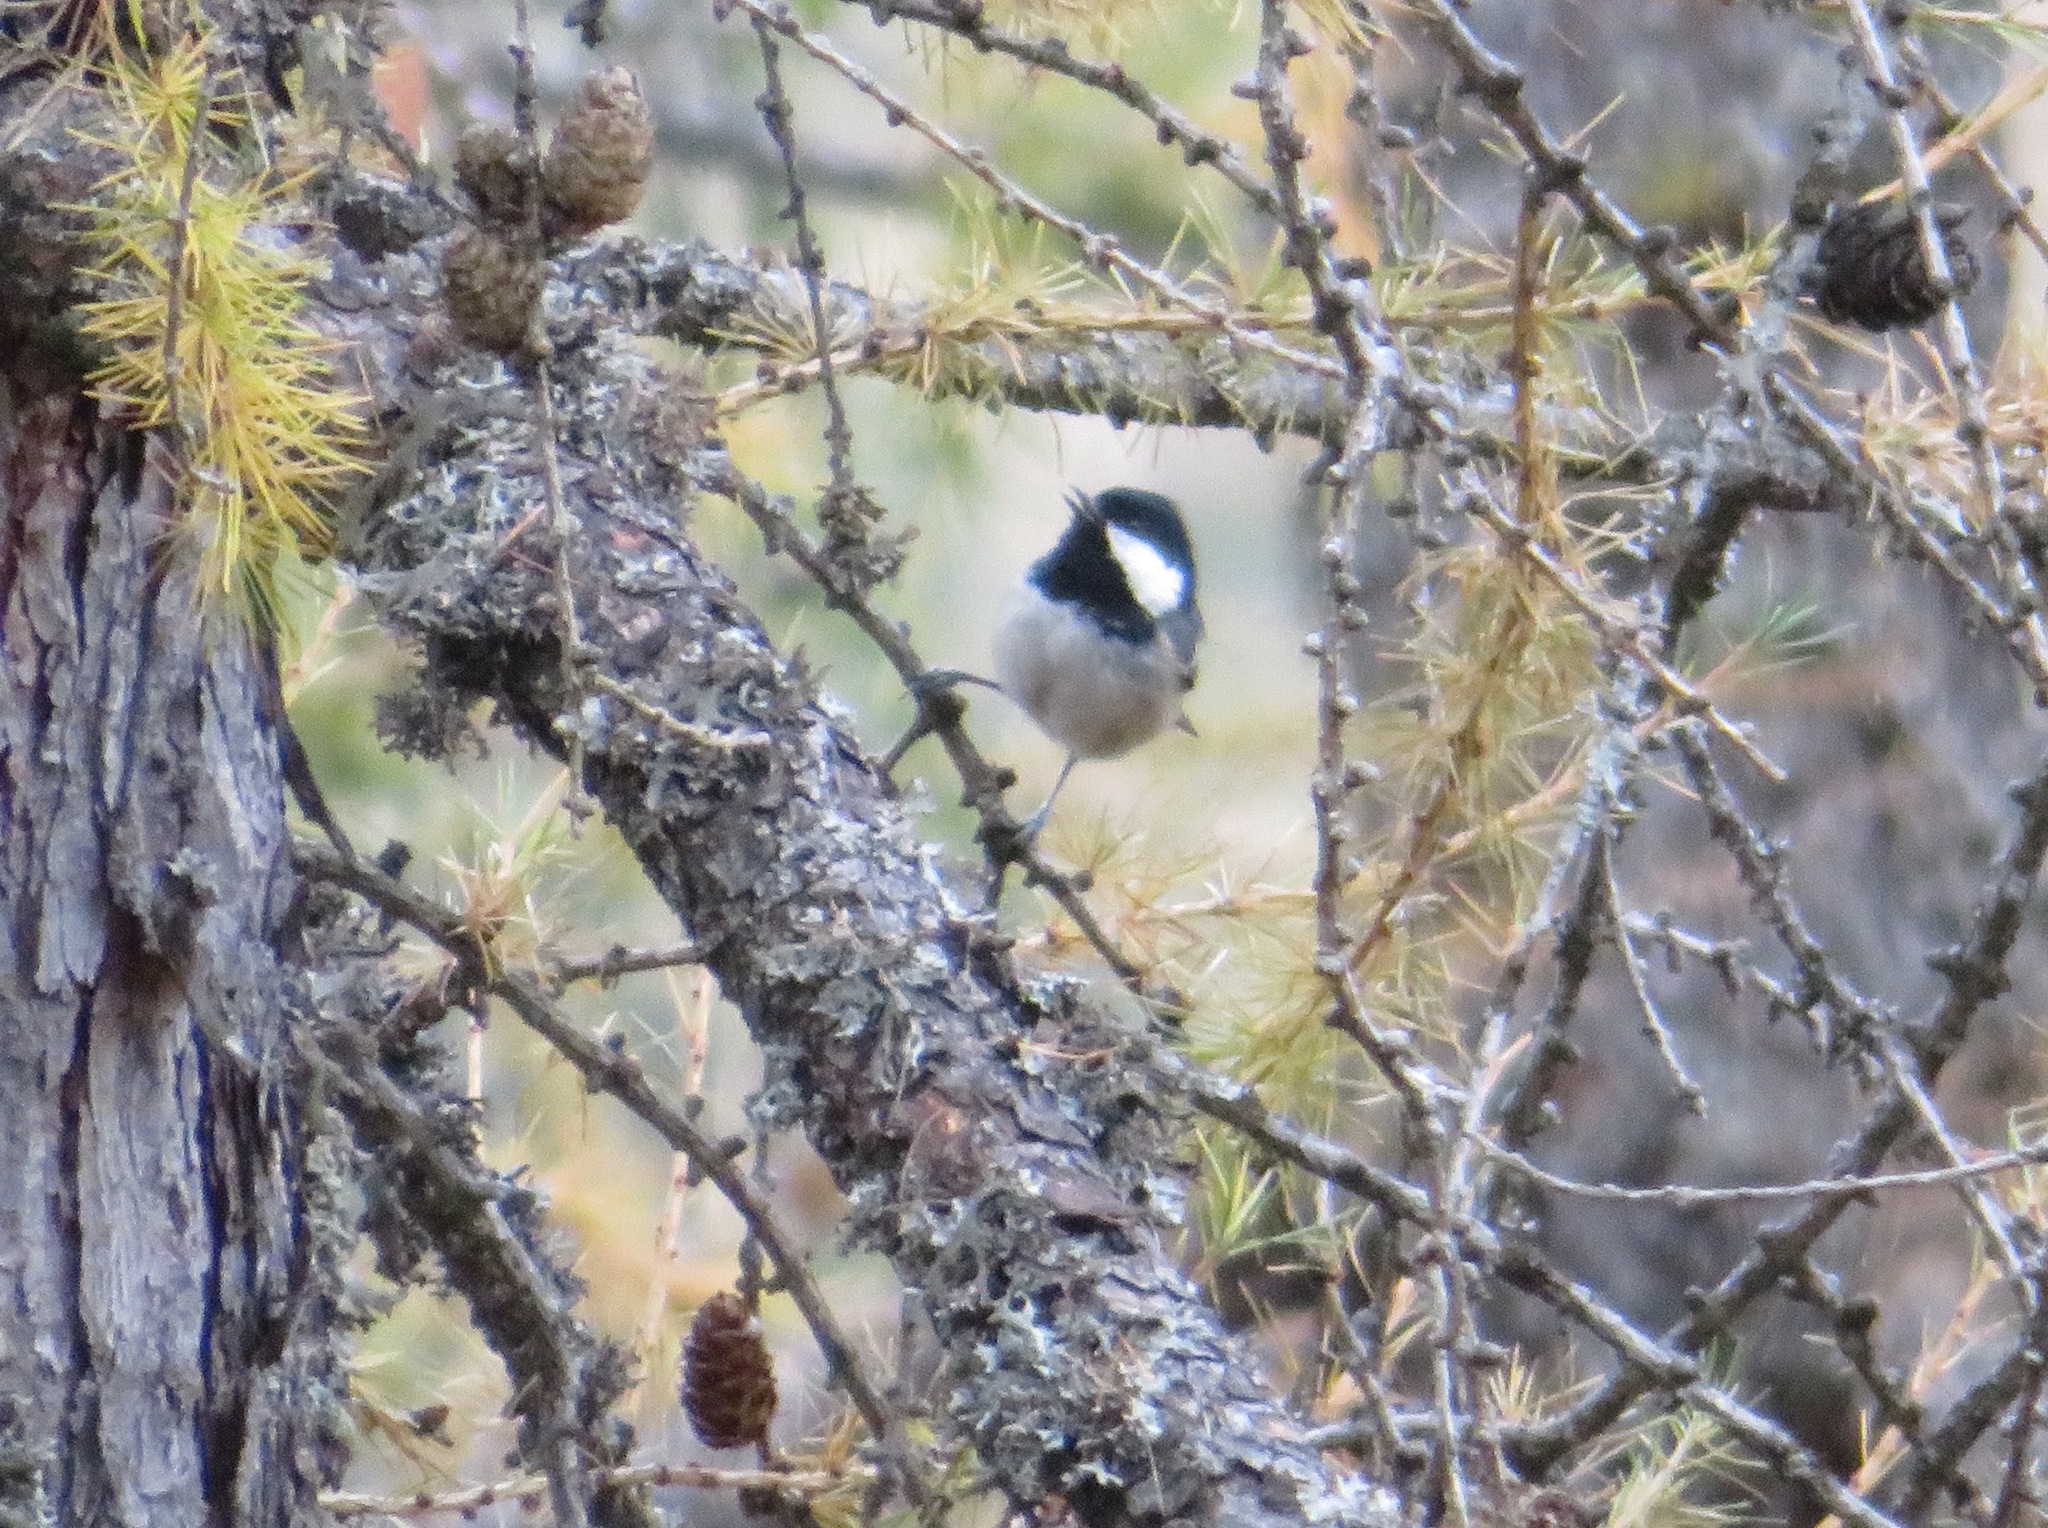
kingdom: Animalia
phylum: Chordata
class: Aves
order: Passeriformes
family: Paridae
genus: Periparus
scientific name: Periparus ater
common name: Coal tit
